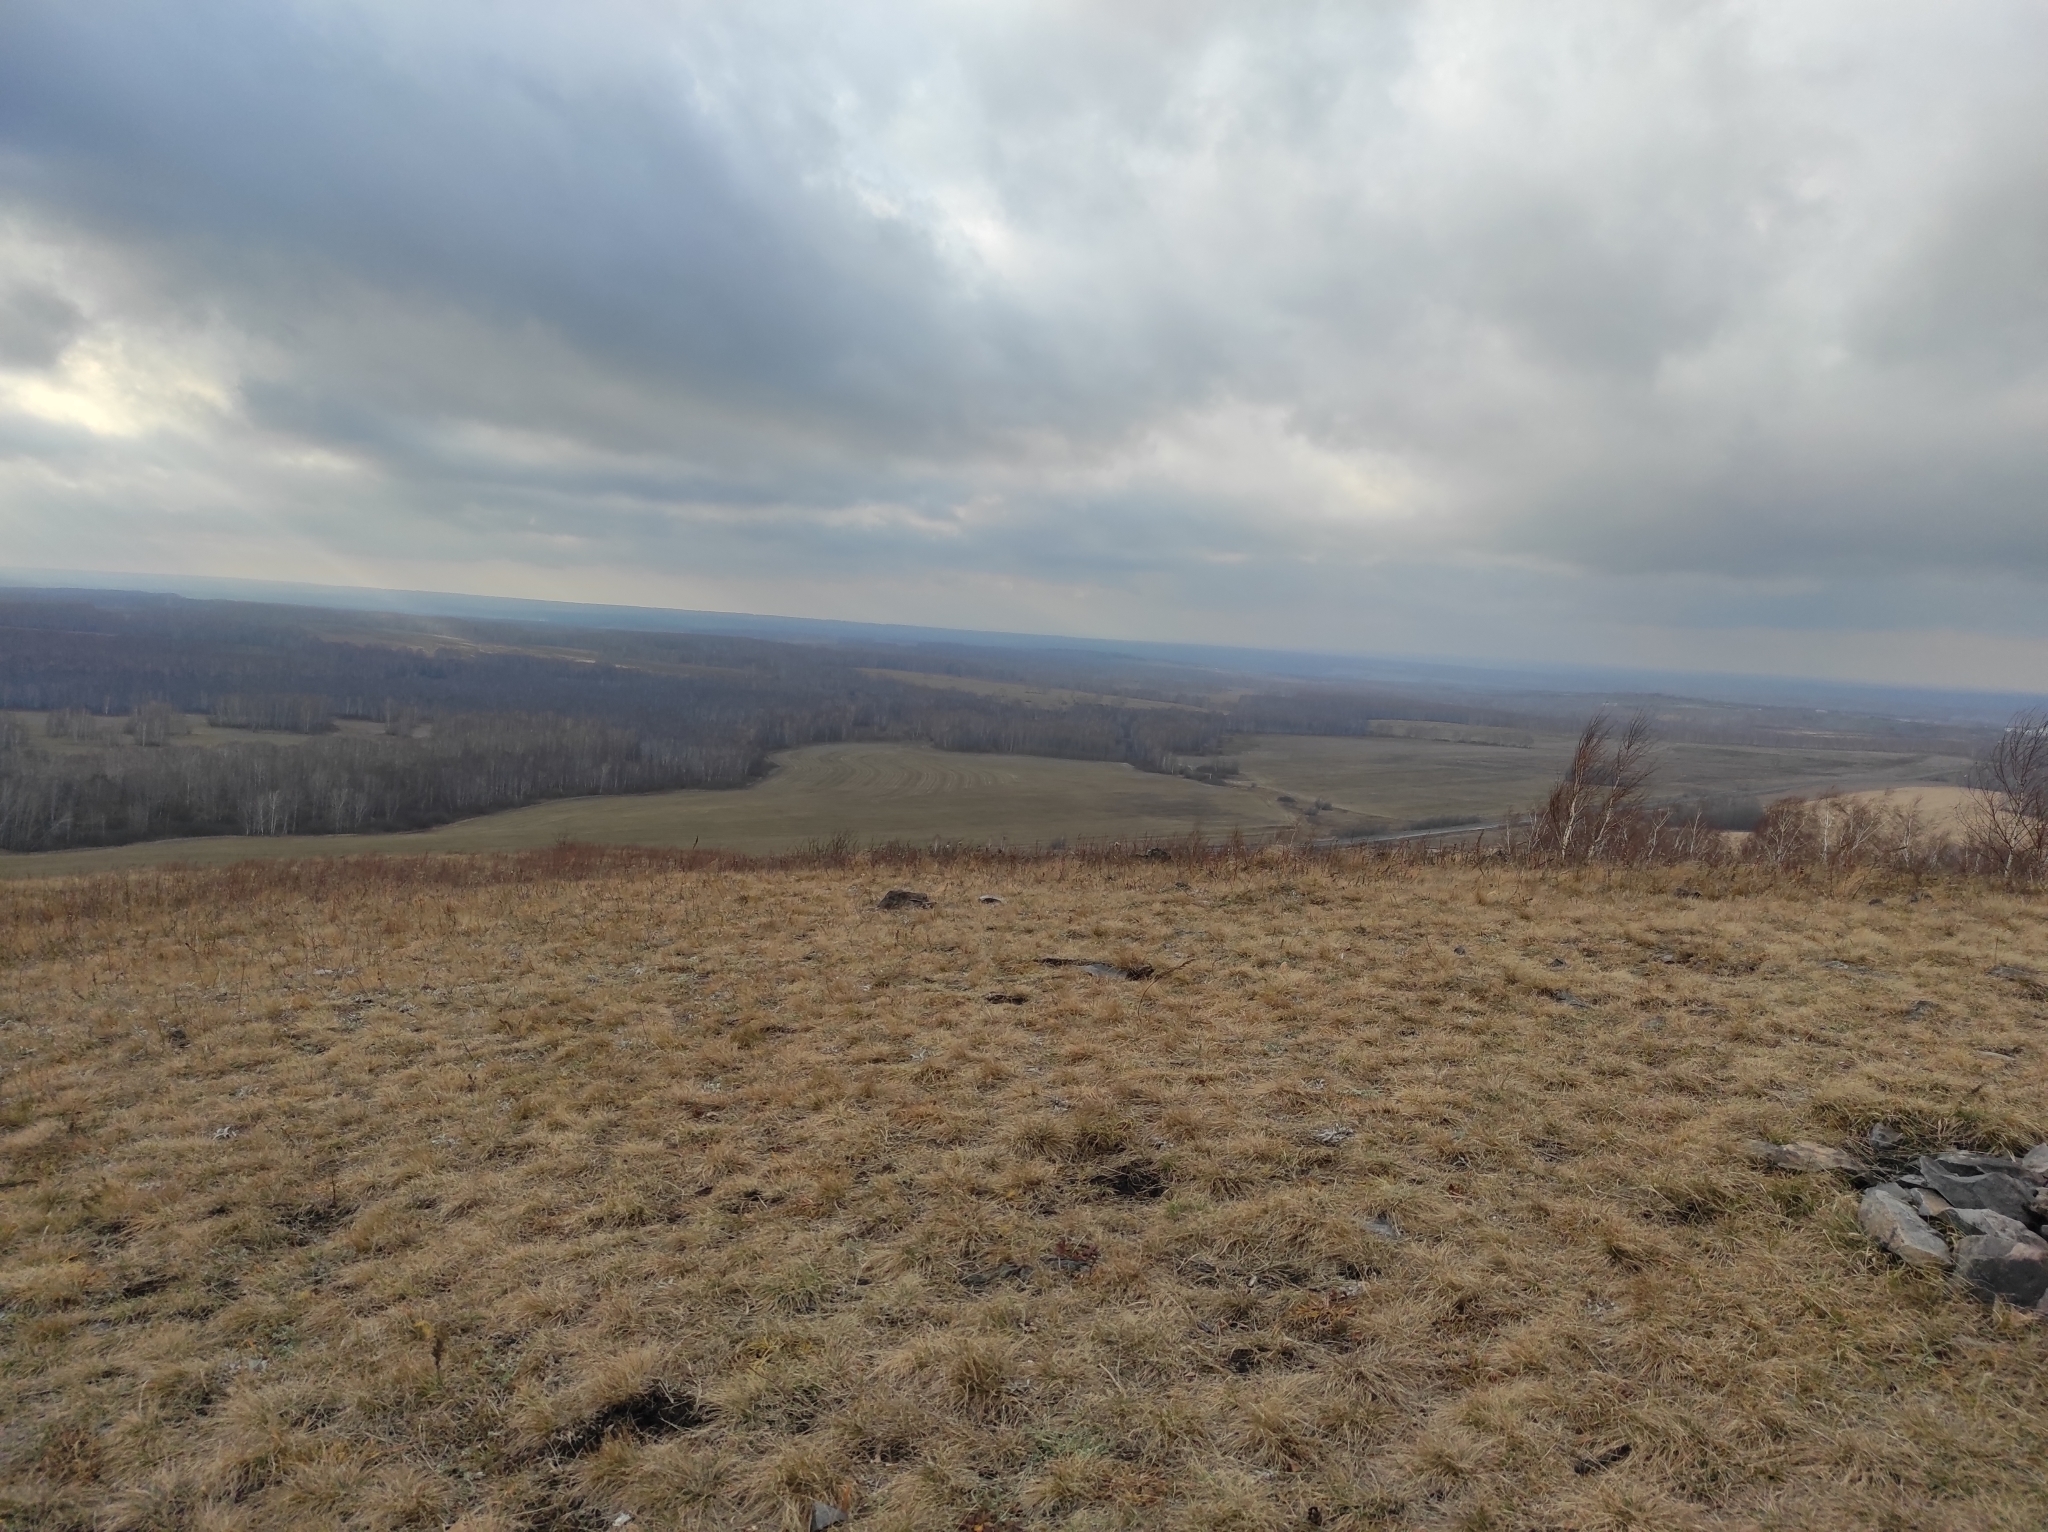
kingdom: Plantae
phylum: Tracheophyta
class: Liliopsida
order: Asparagales
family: Amaryllidaceae
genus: Allium
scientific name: Allium nutans
